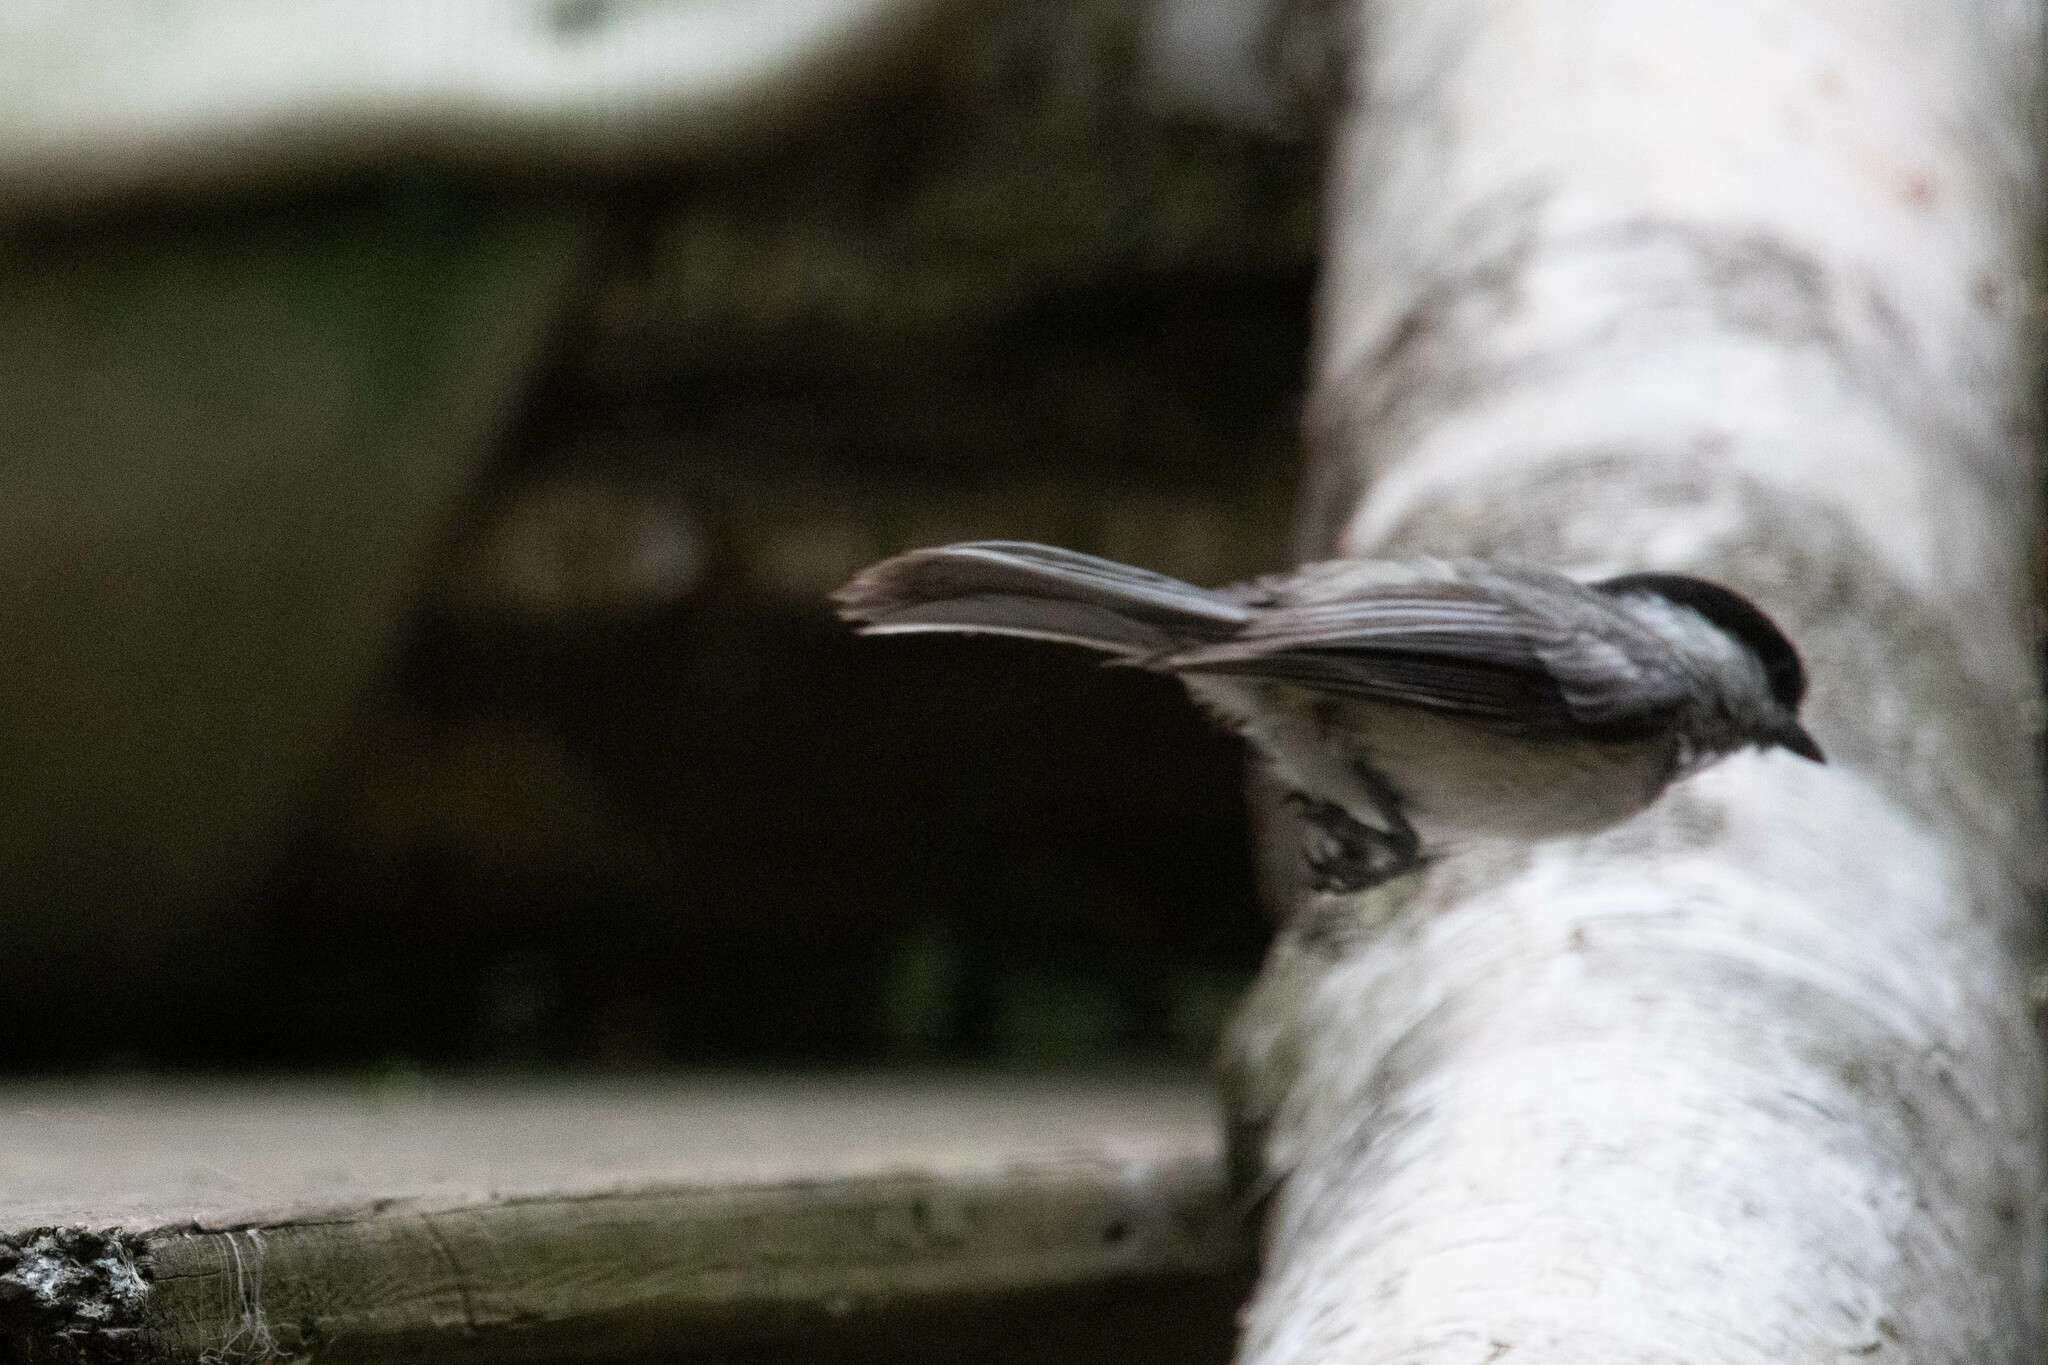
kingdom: Animalia
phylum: Chordata
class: Aves
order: Passeriformes
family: Paridae
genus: Poecile
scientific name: Poecile atricapillus
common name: Black-capped chickadee
